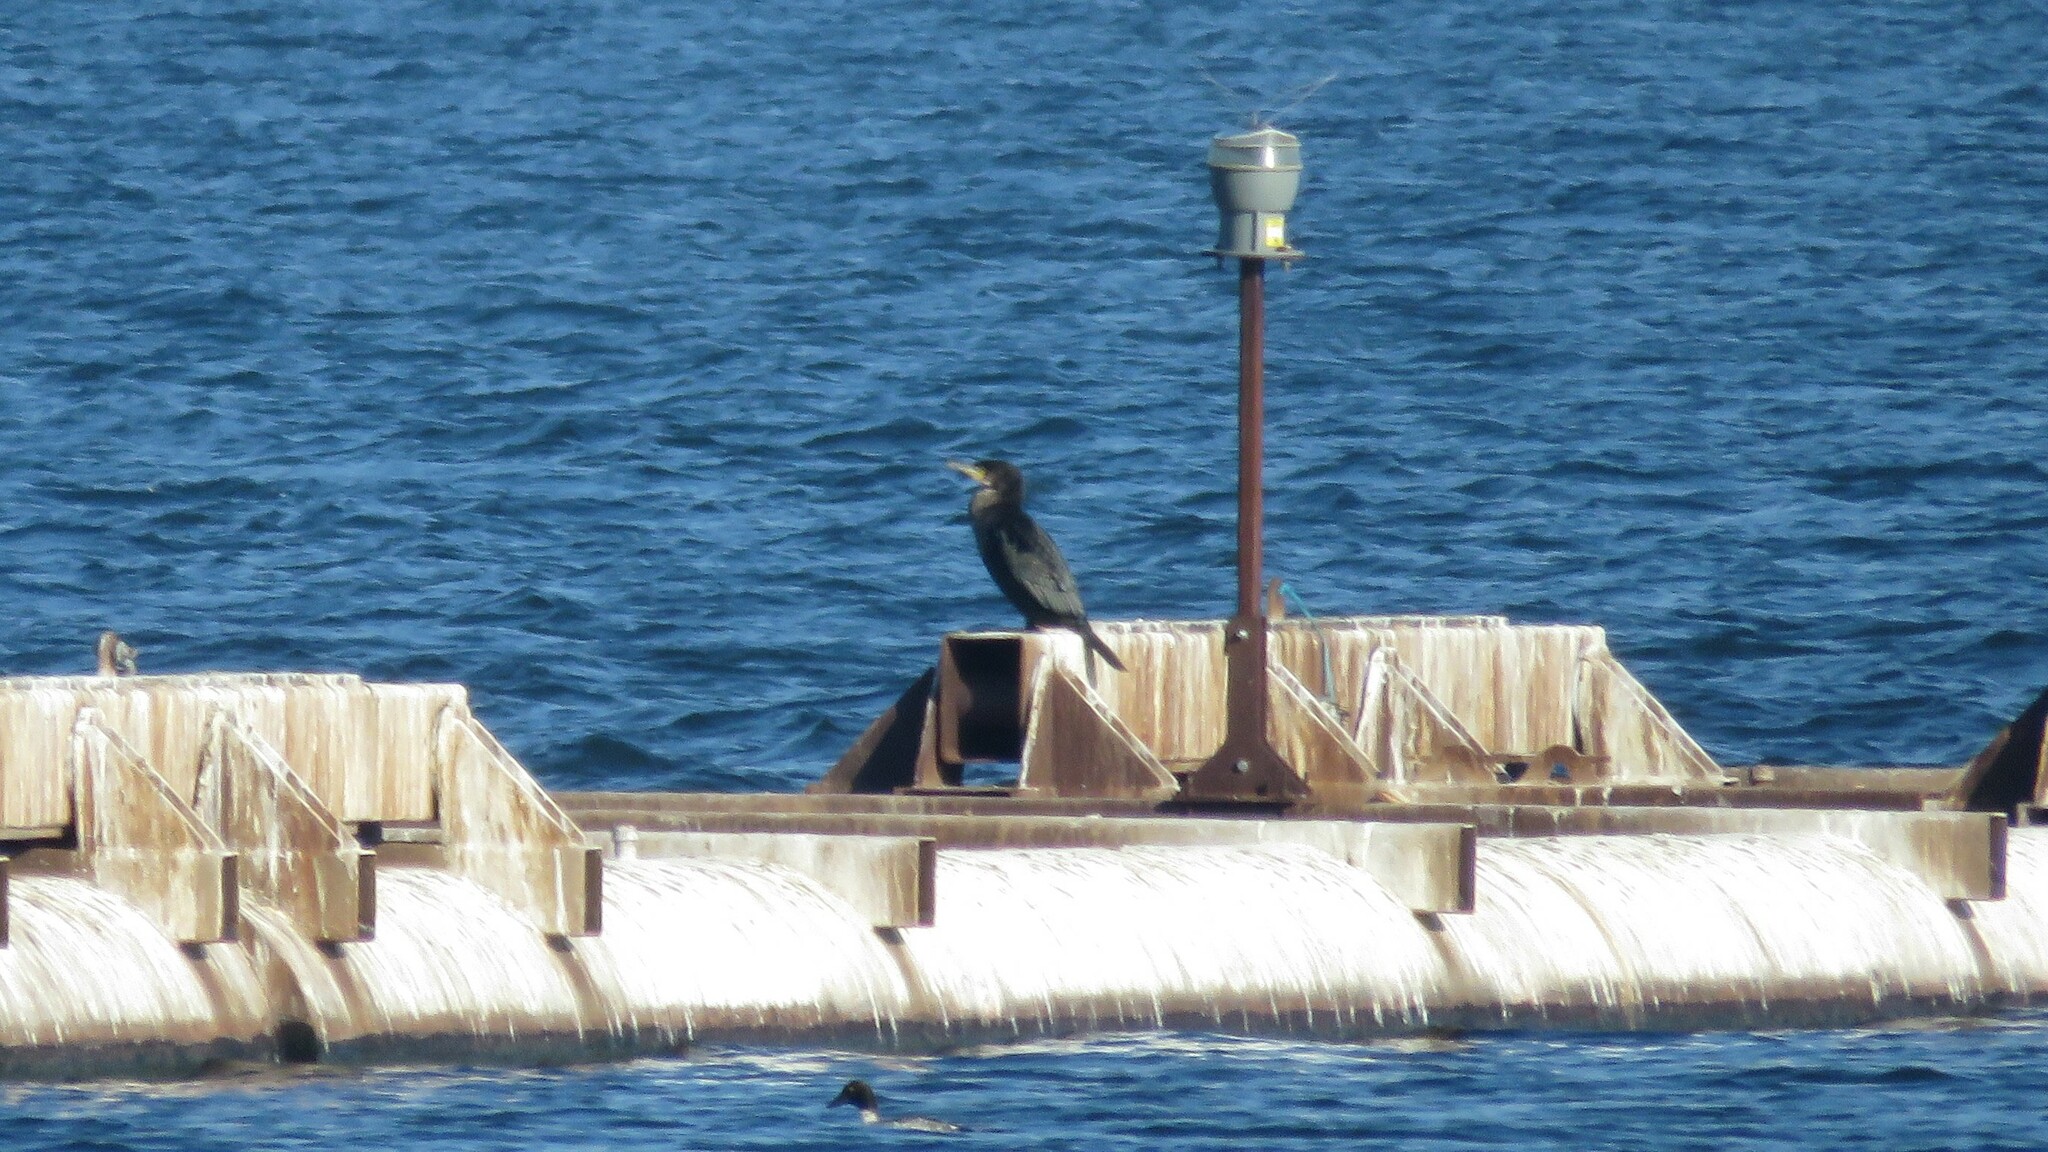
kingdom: Animalia
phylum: Chordata
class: Aves
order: Suliformes
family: Phalacrocoracidae
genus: Phalacrocorax
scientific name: Phalacrocorax carbo
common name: Great cormorant
